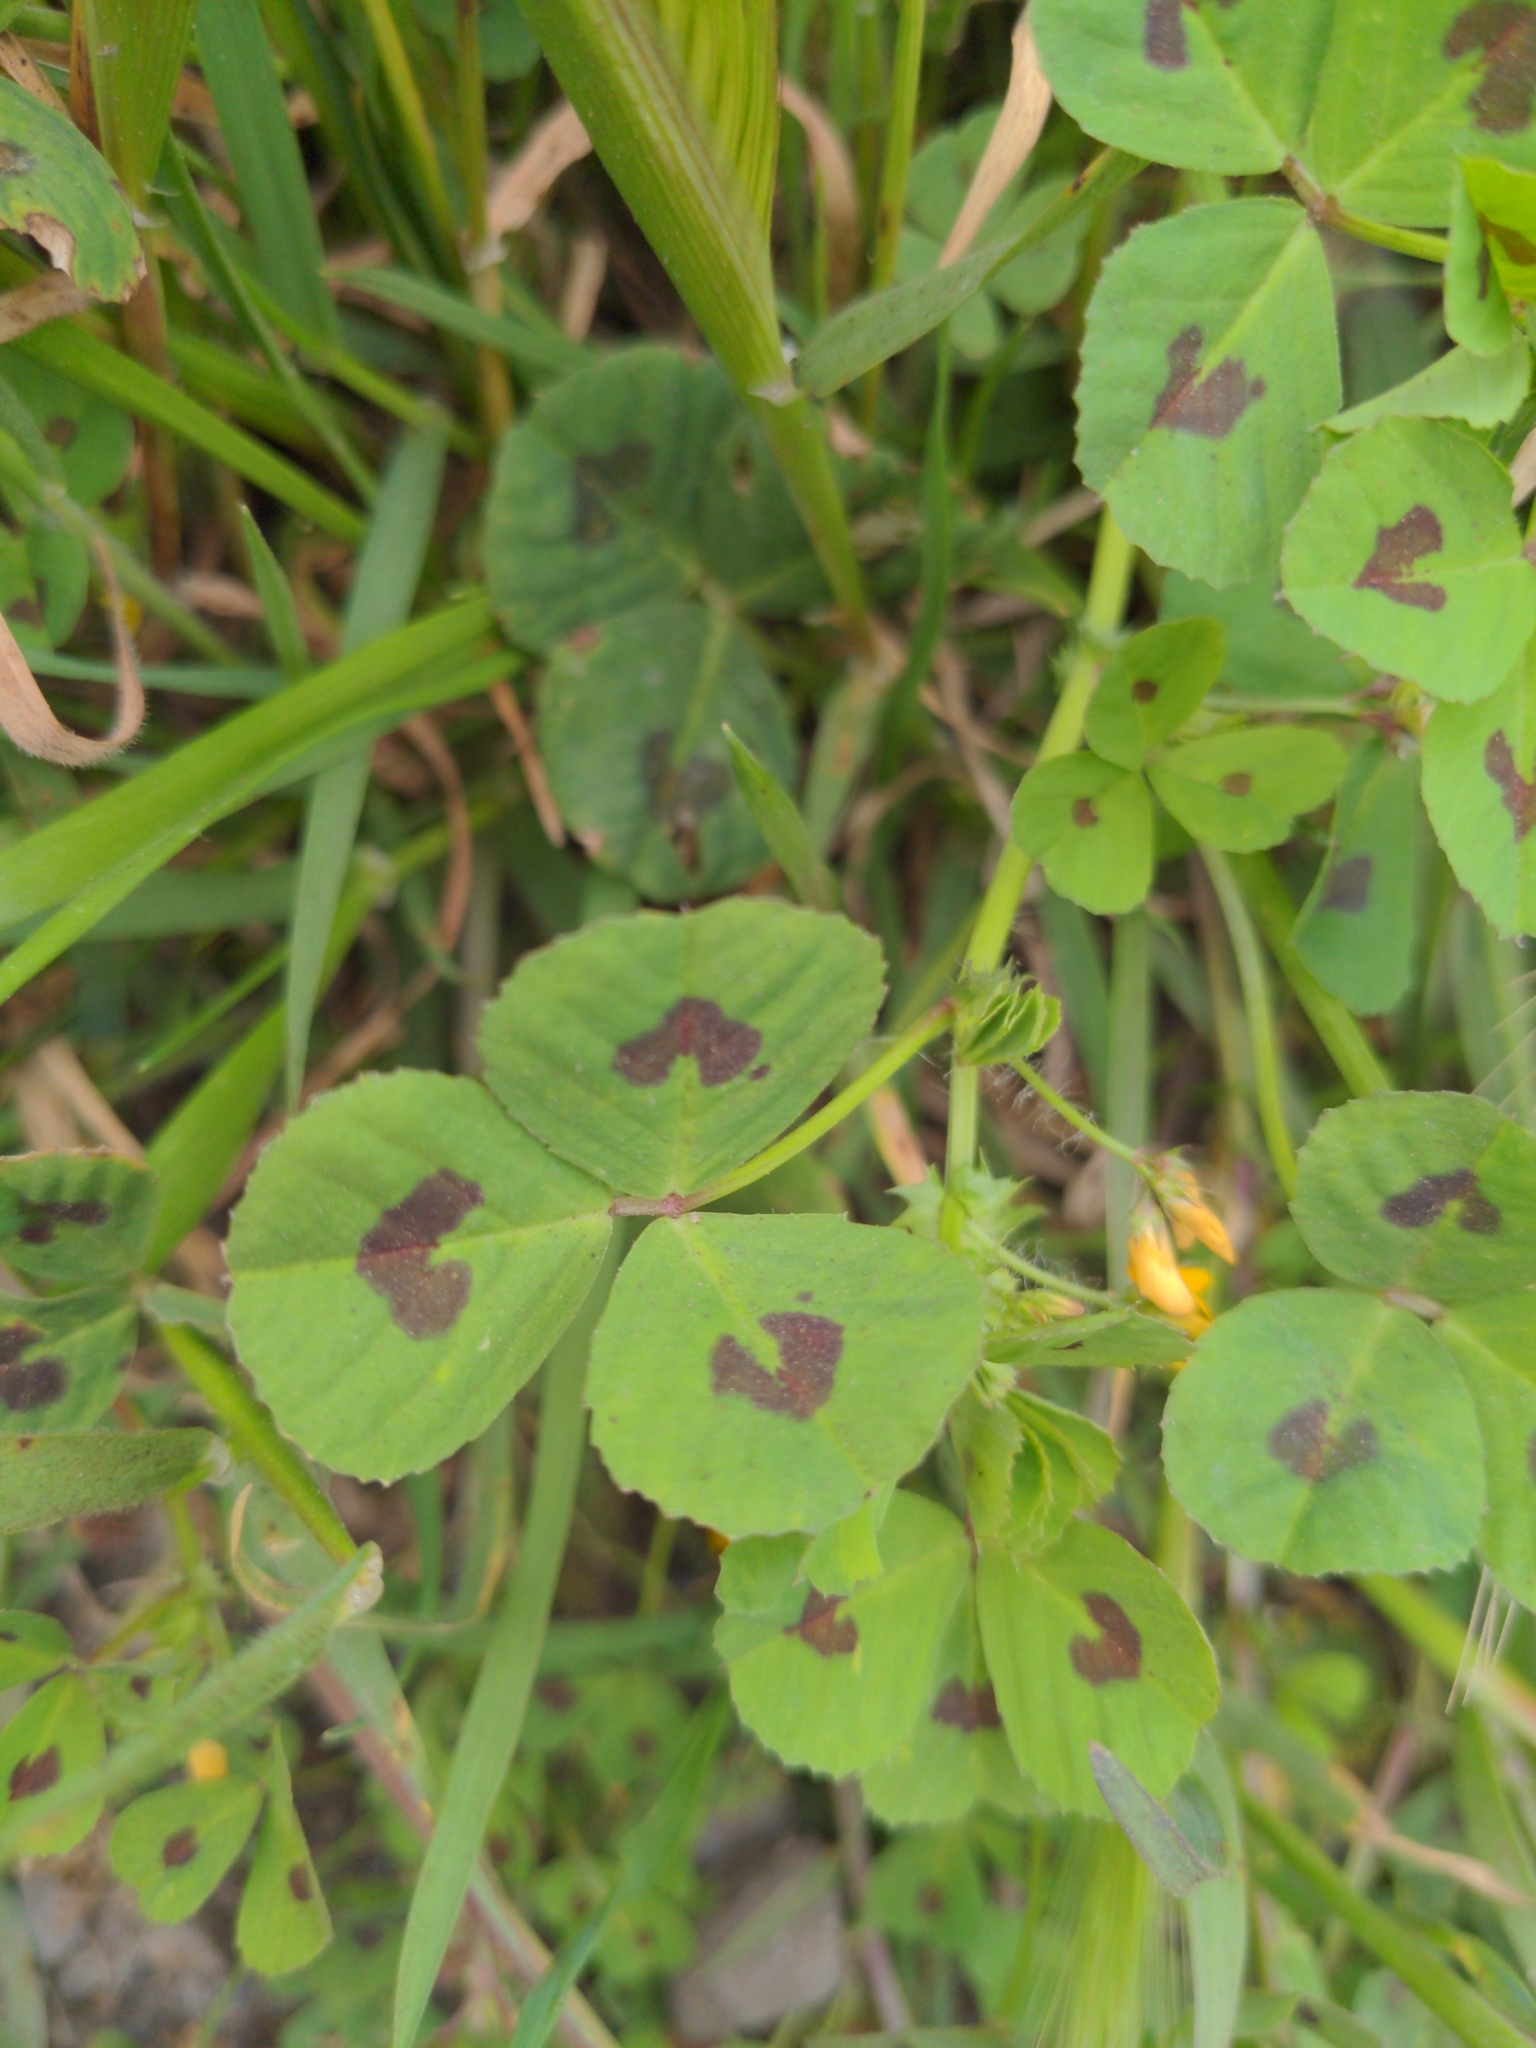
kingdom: Plantae
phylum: Tracheophyta
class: Magnoliopsida
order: Fabales
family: Fabaceae
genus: Medicago
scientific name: Medicago arabica
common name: Spotted medick
